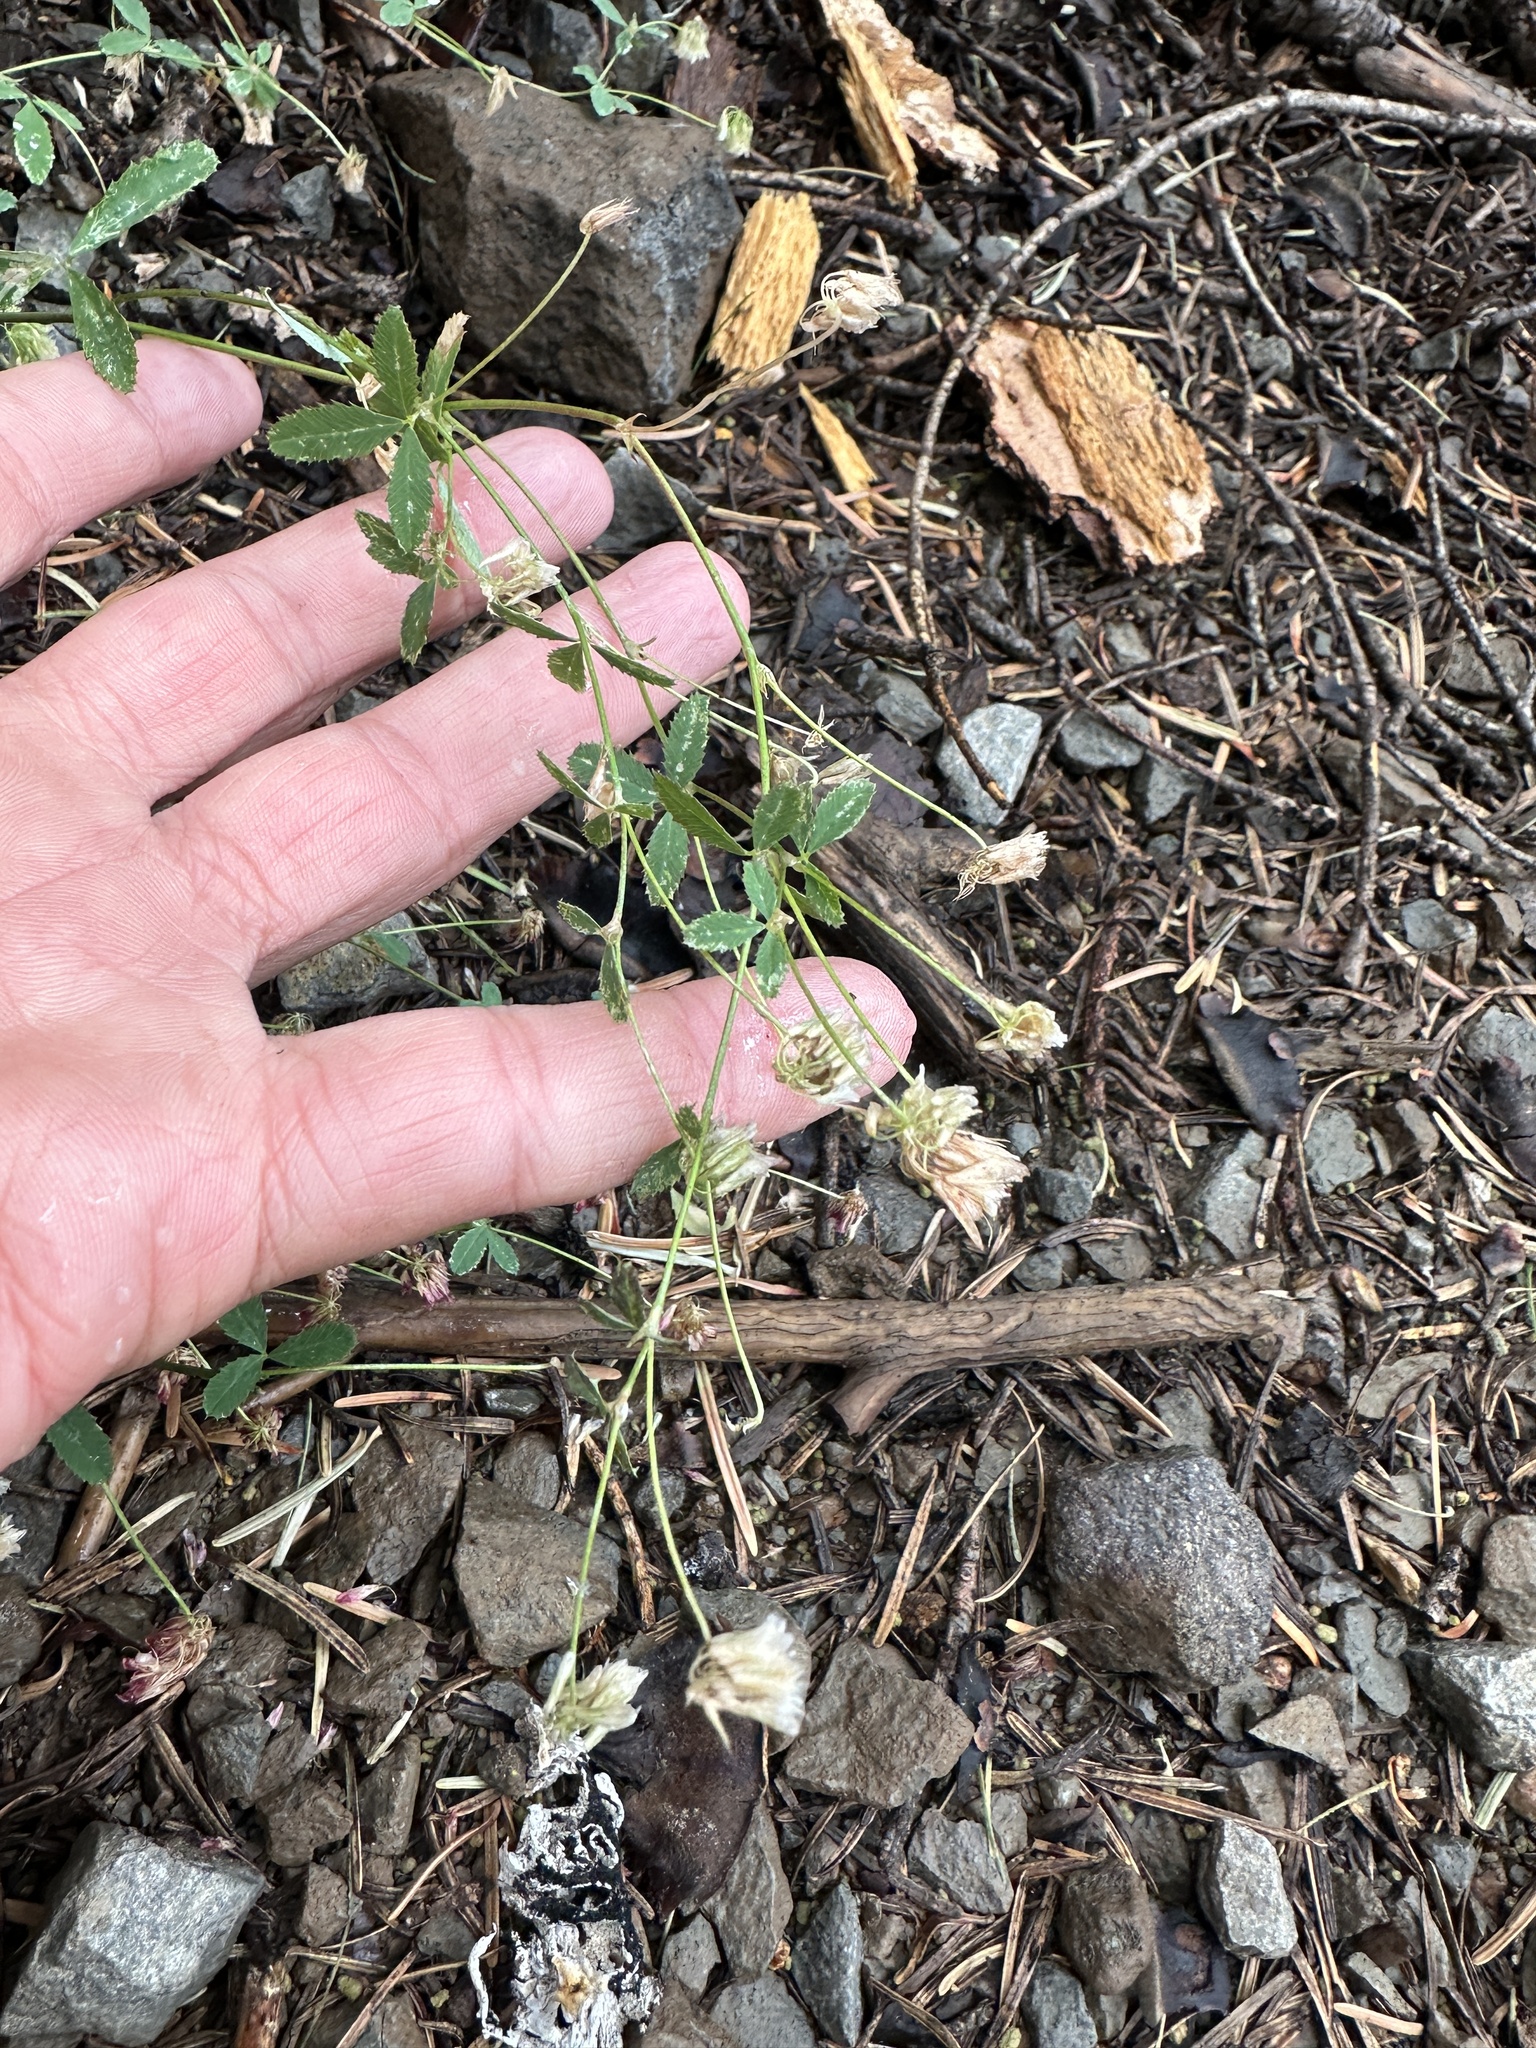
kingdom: Plantae
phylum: Tracheophyta
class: Magnoliopsida
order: Fabales
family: Fabaceae
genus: Trifolium
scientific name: Trifolium breweri
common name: Forest clover
